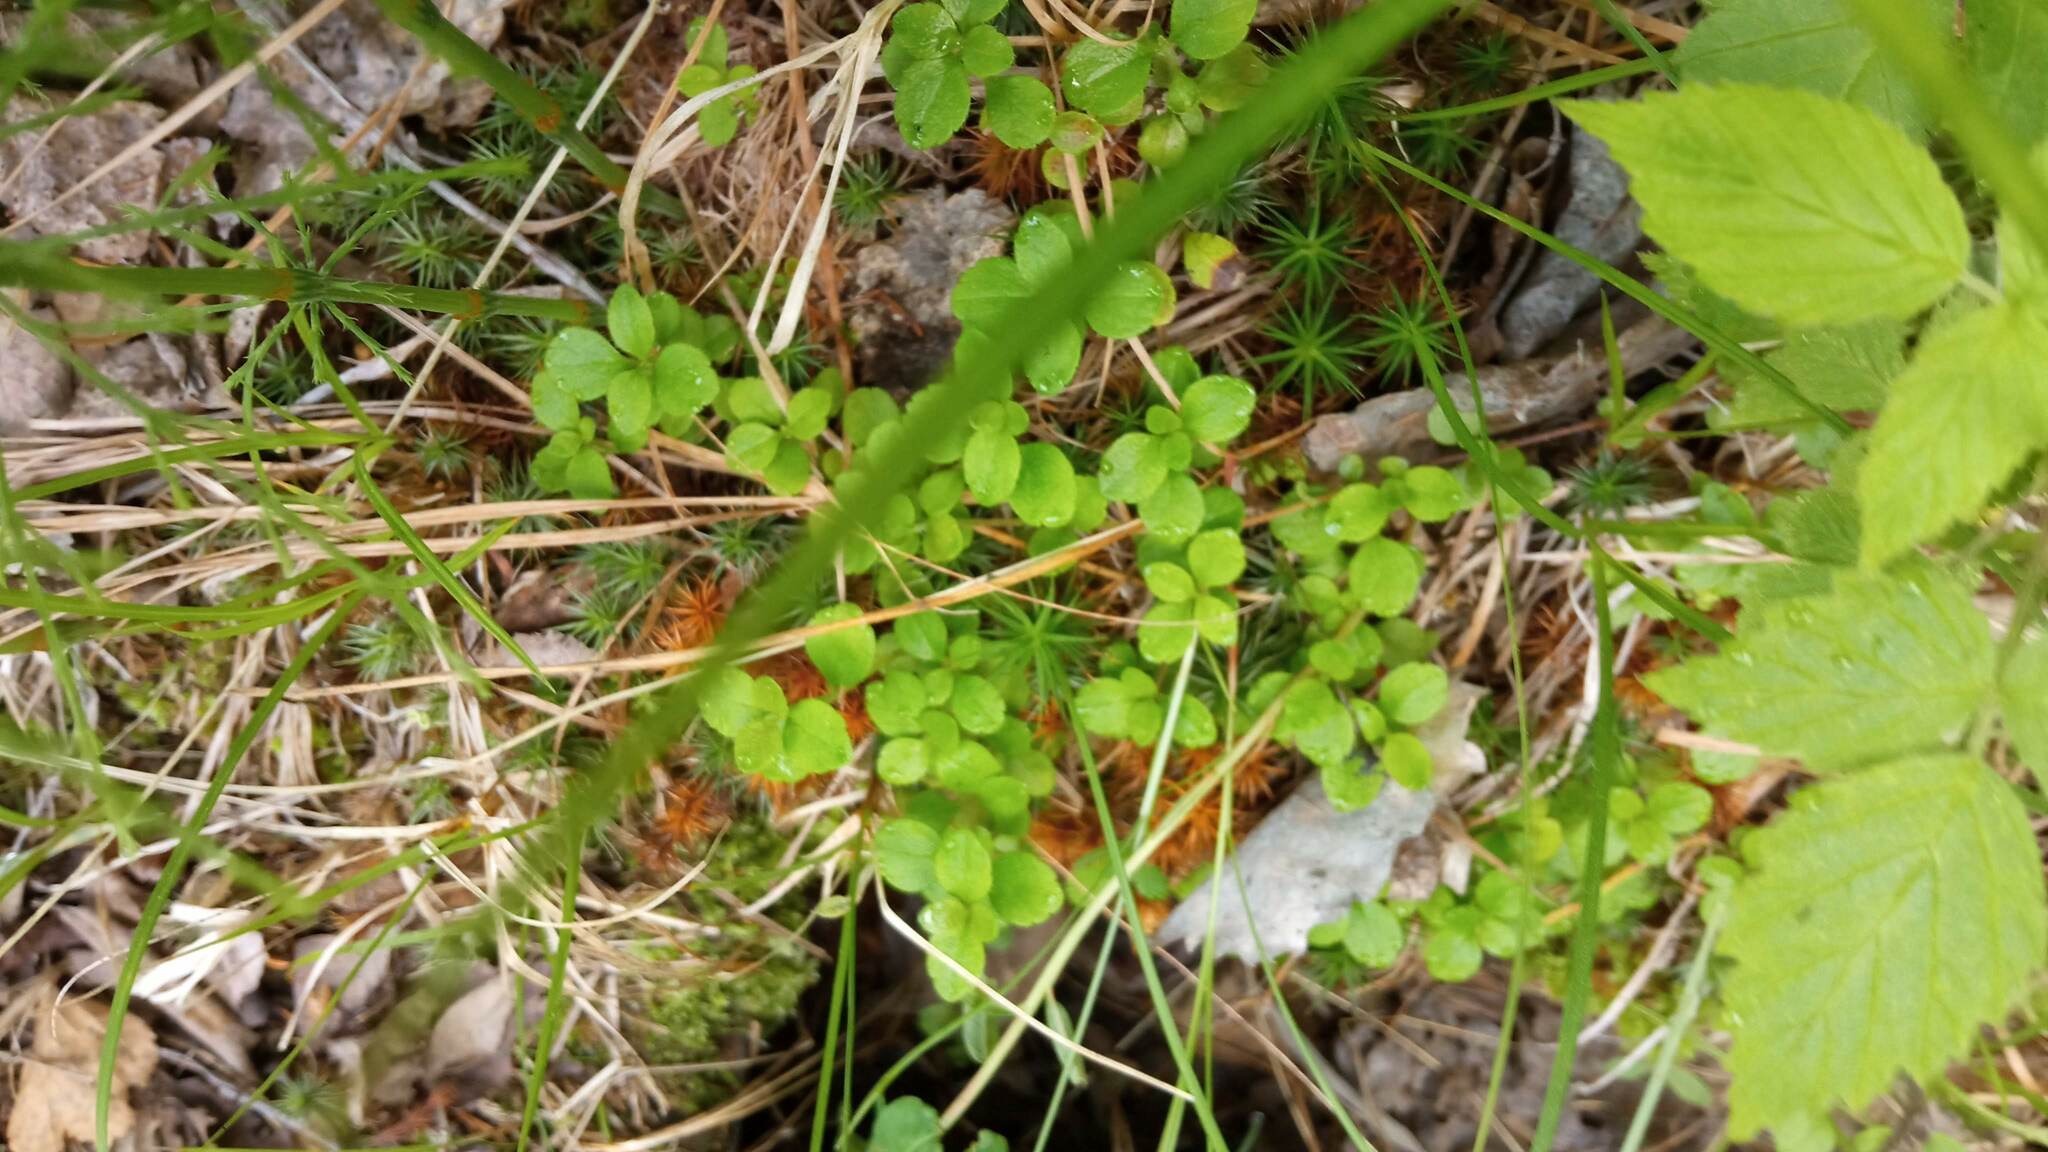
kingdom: Plantae
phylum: Tracheophyta
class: Magnoliopsida
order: Dipsacales
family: Caprifoliaceae
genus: Linnaea
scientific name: Linnaea borealis
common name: Twinflower
